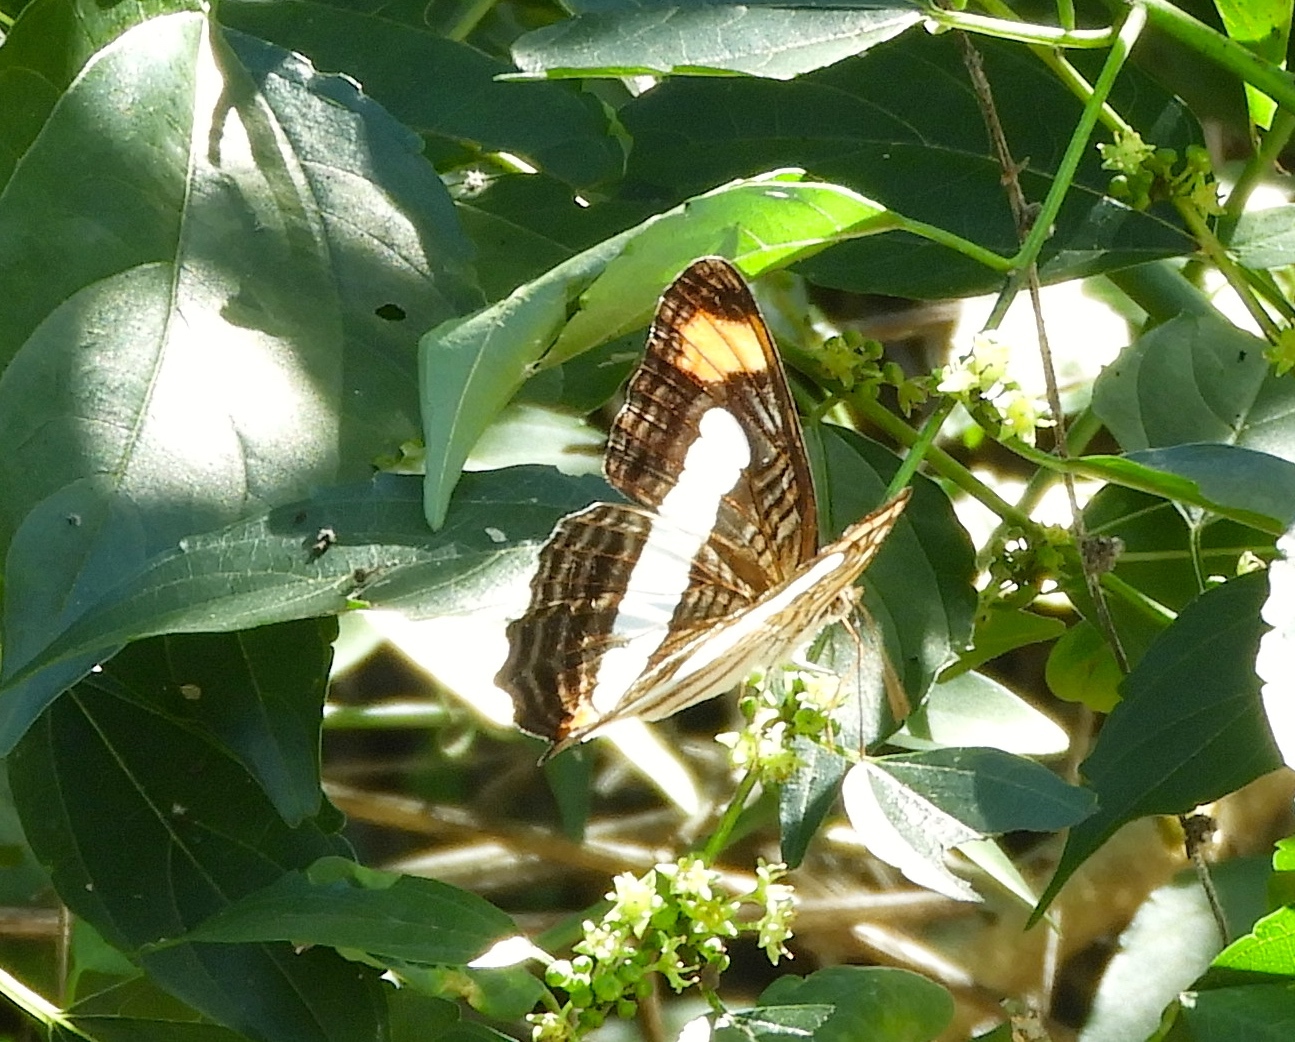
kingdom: Animalia
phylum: Arthropoda
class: Insecta
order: Lepidoptera
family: Nymphalidae
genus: Limenitis
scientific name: Limenitis iphiclus
